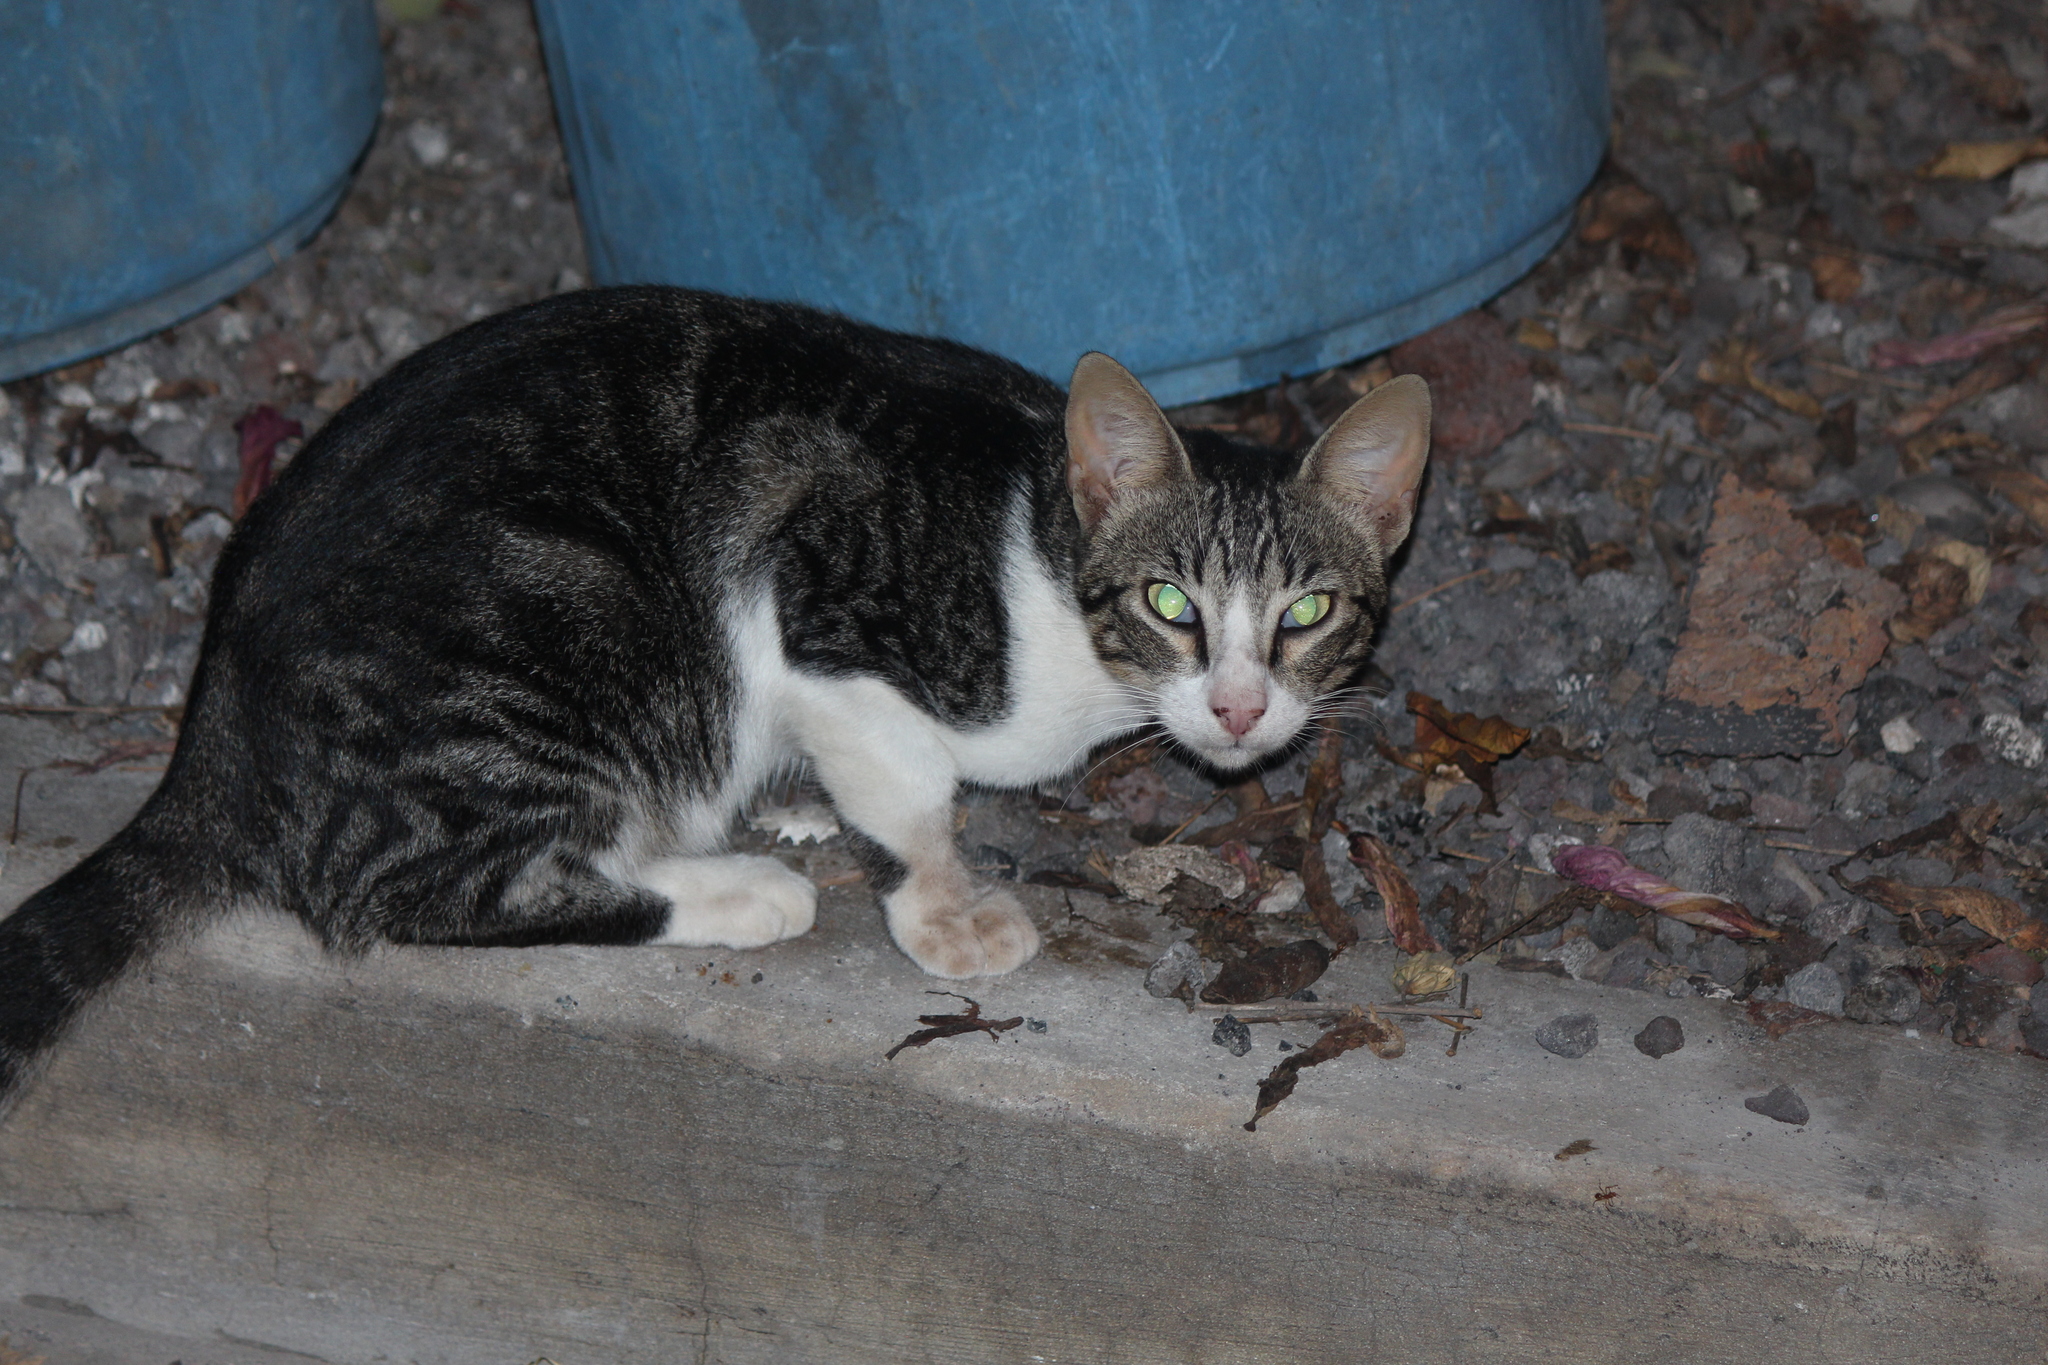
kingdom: Animalia
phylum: Chordata
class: Mammalia
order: Carnivora
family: Felidae
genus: Felis
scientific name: Felis catus
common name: Domestic cat
